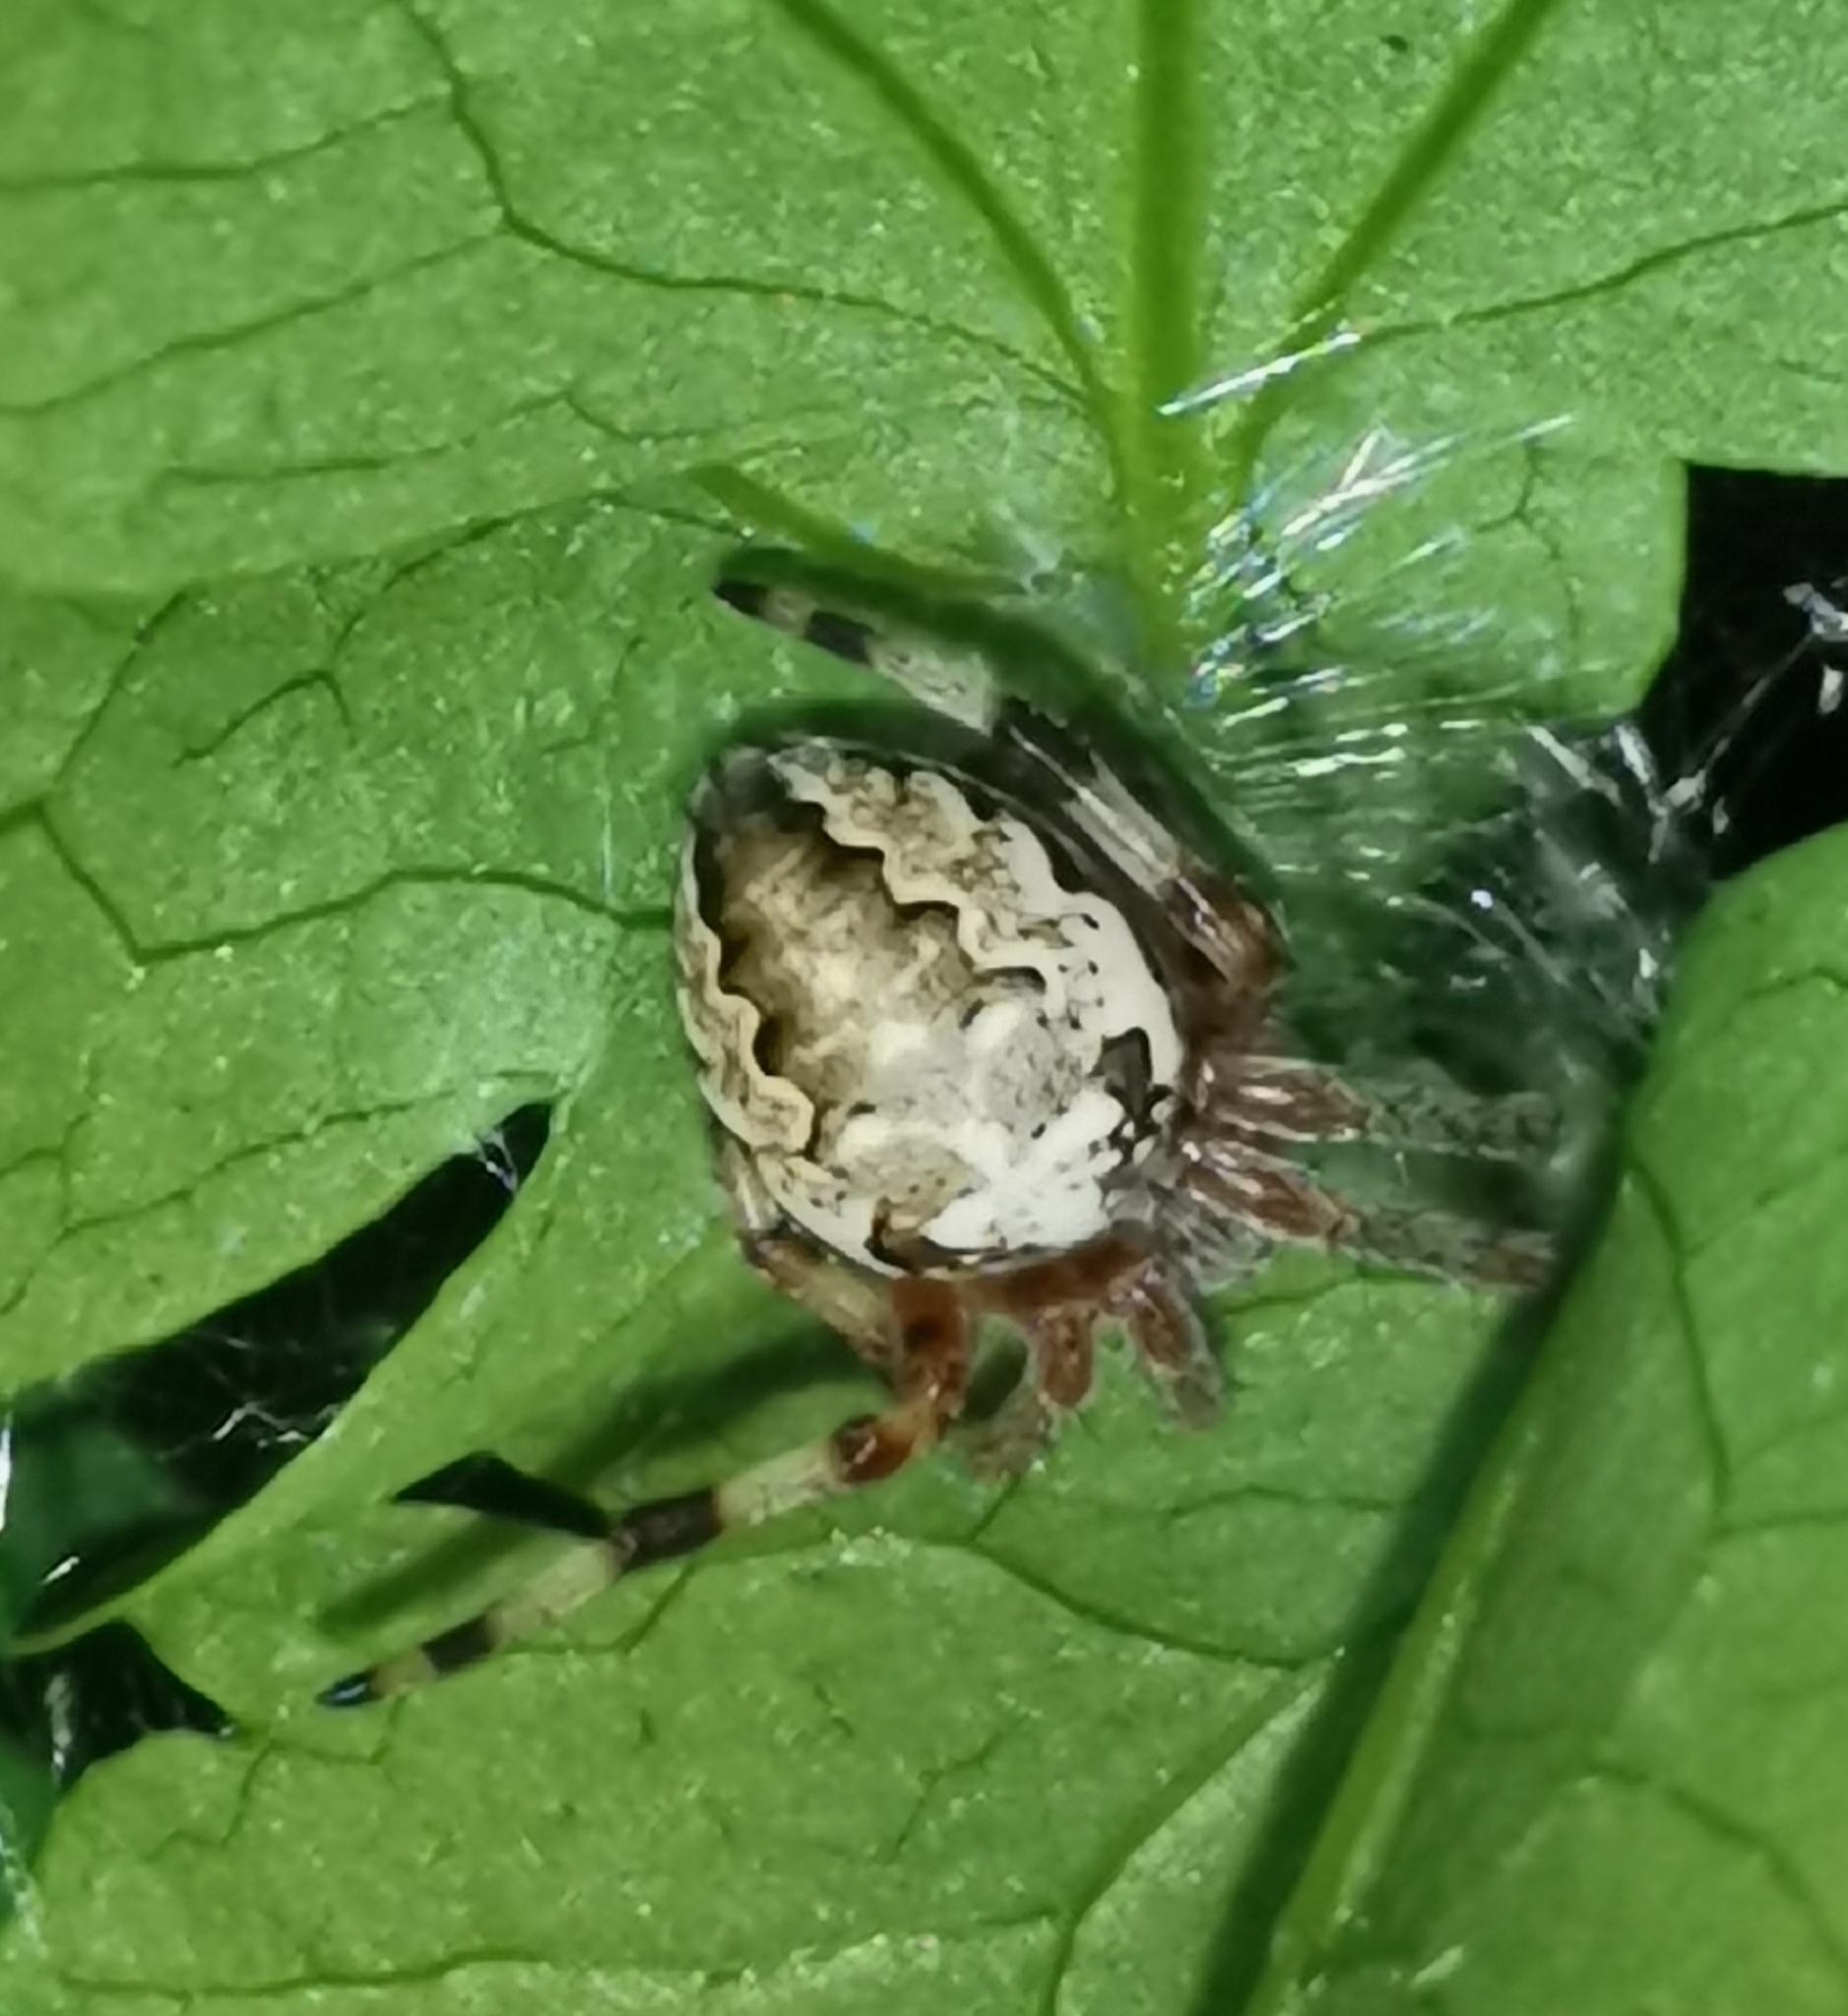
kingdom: Animalia
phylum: Arthropoda
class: Arachnida
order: Araneae
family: Araneidae
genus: Araneus
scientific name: Araneus marmoreus
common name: Marbled orbweaver
